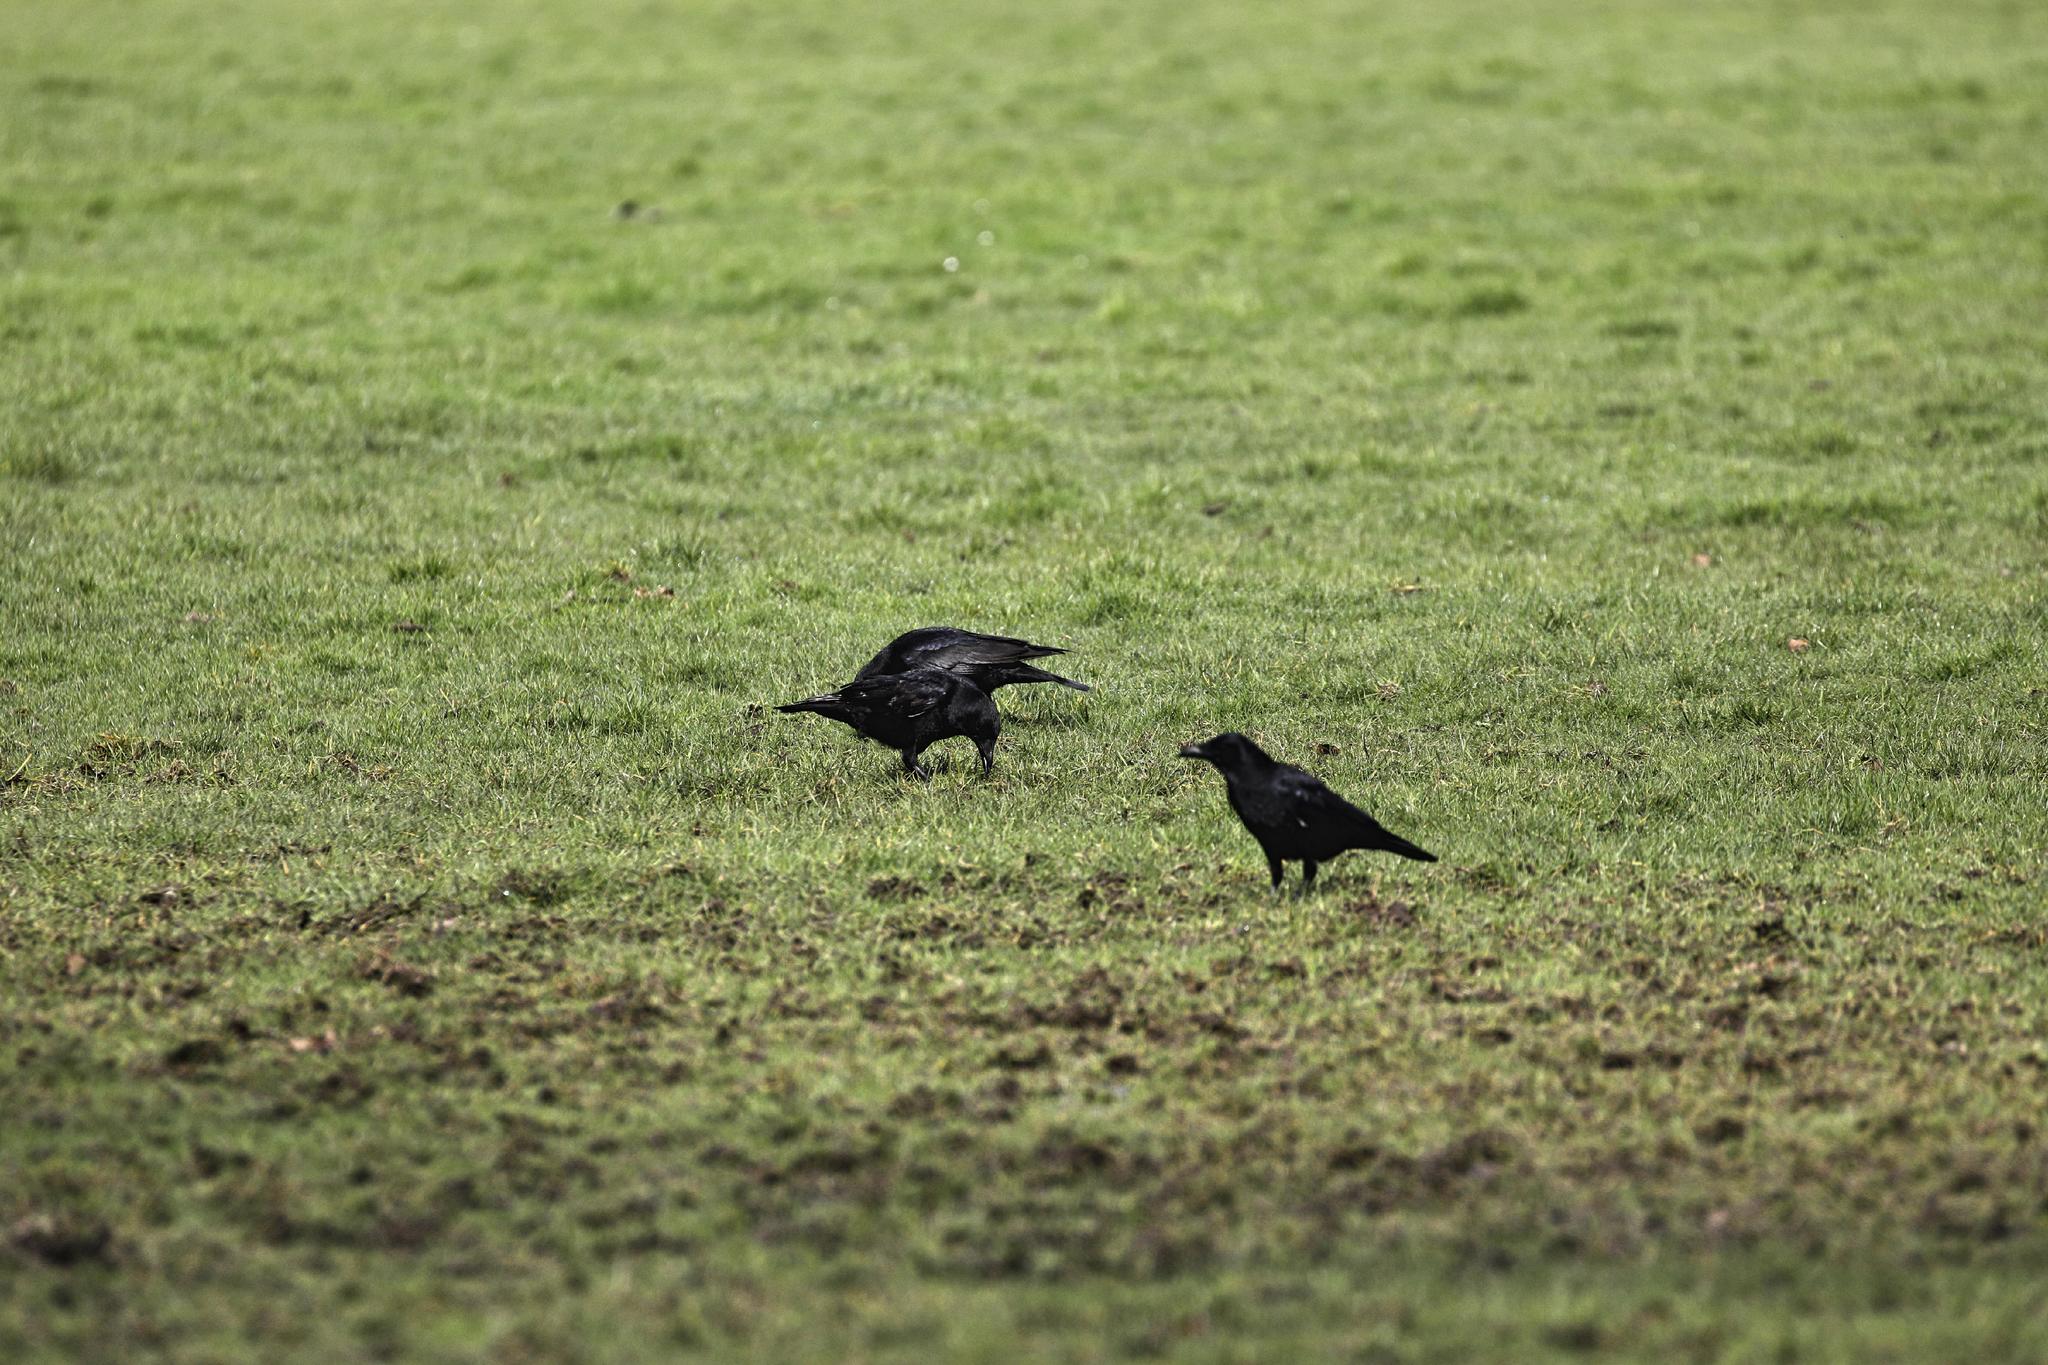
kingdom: Animalia
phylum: Chordata
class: Aves
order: Passeriformes
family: Corvidae
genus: Corvus
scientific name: Corvus corone
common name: Carrion crow
